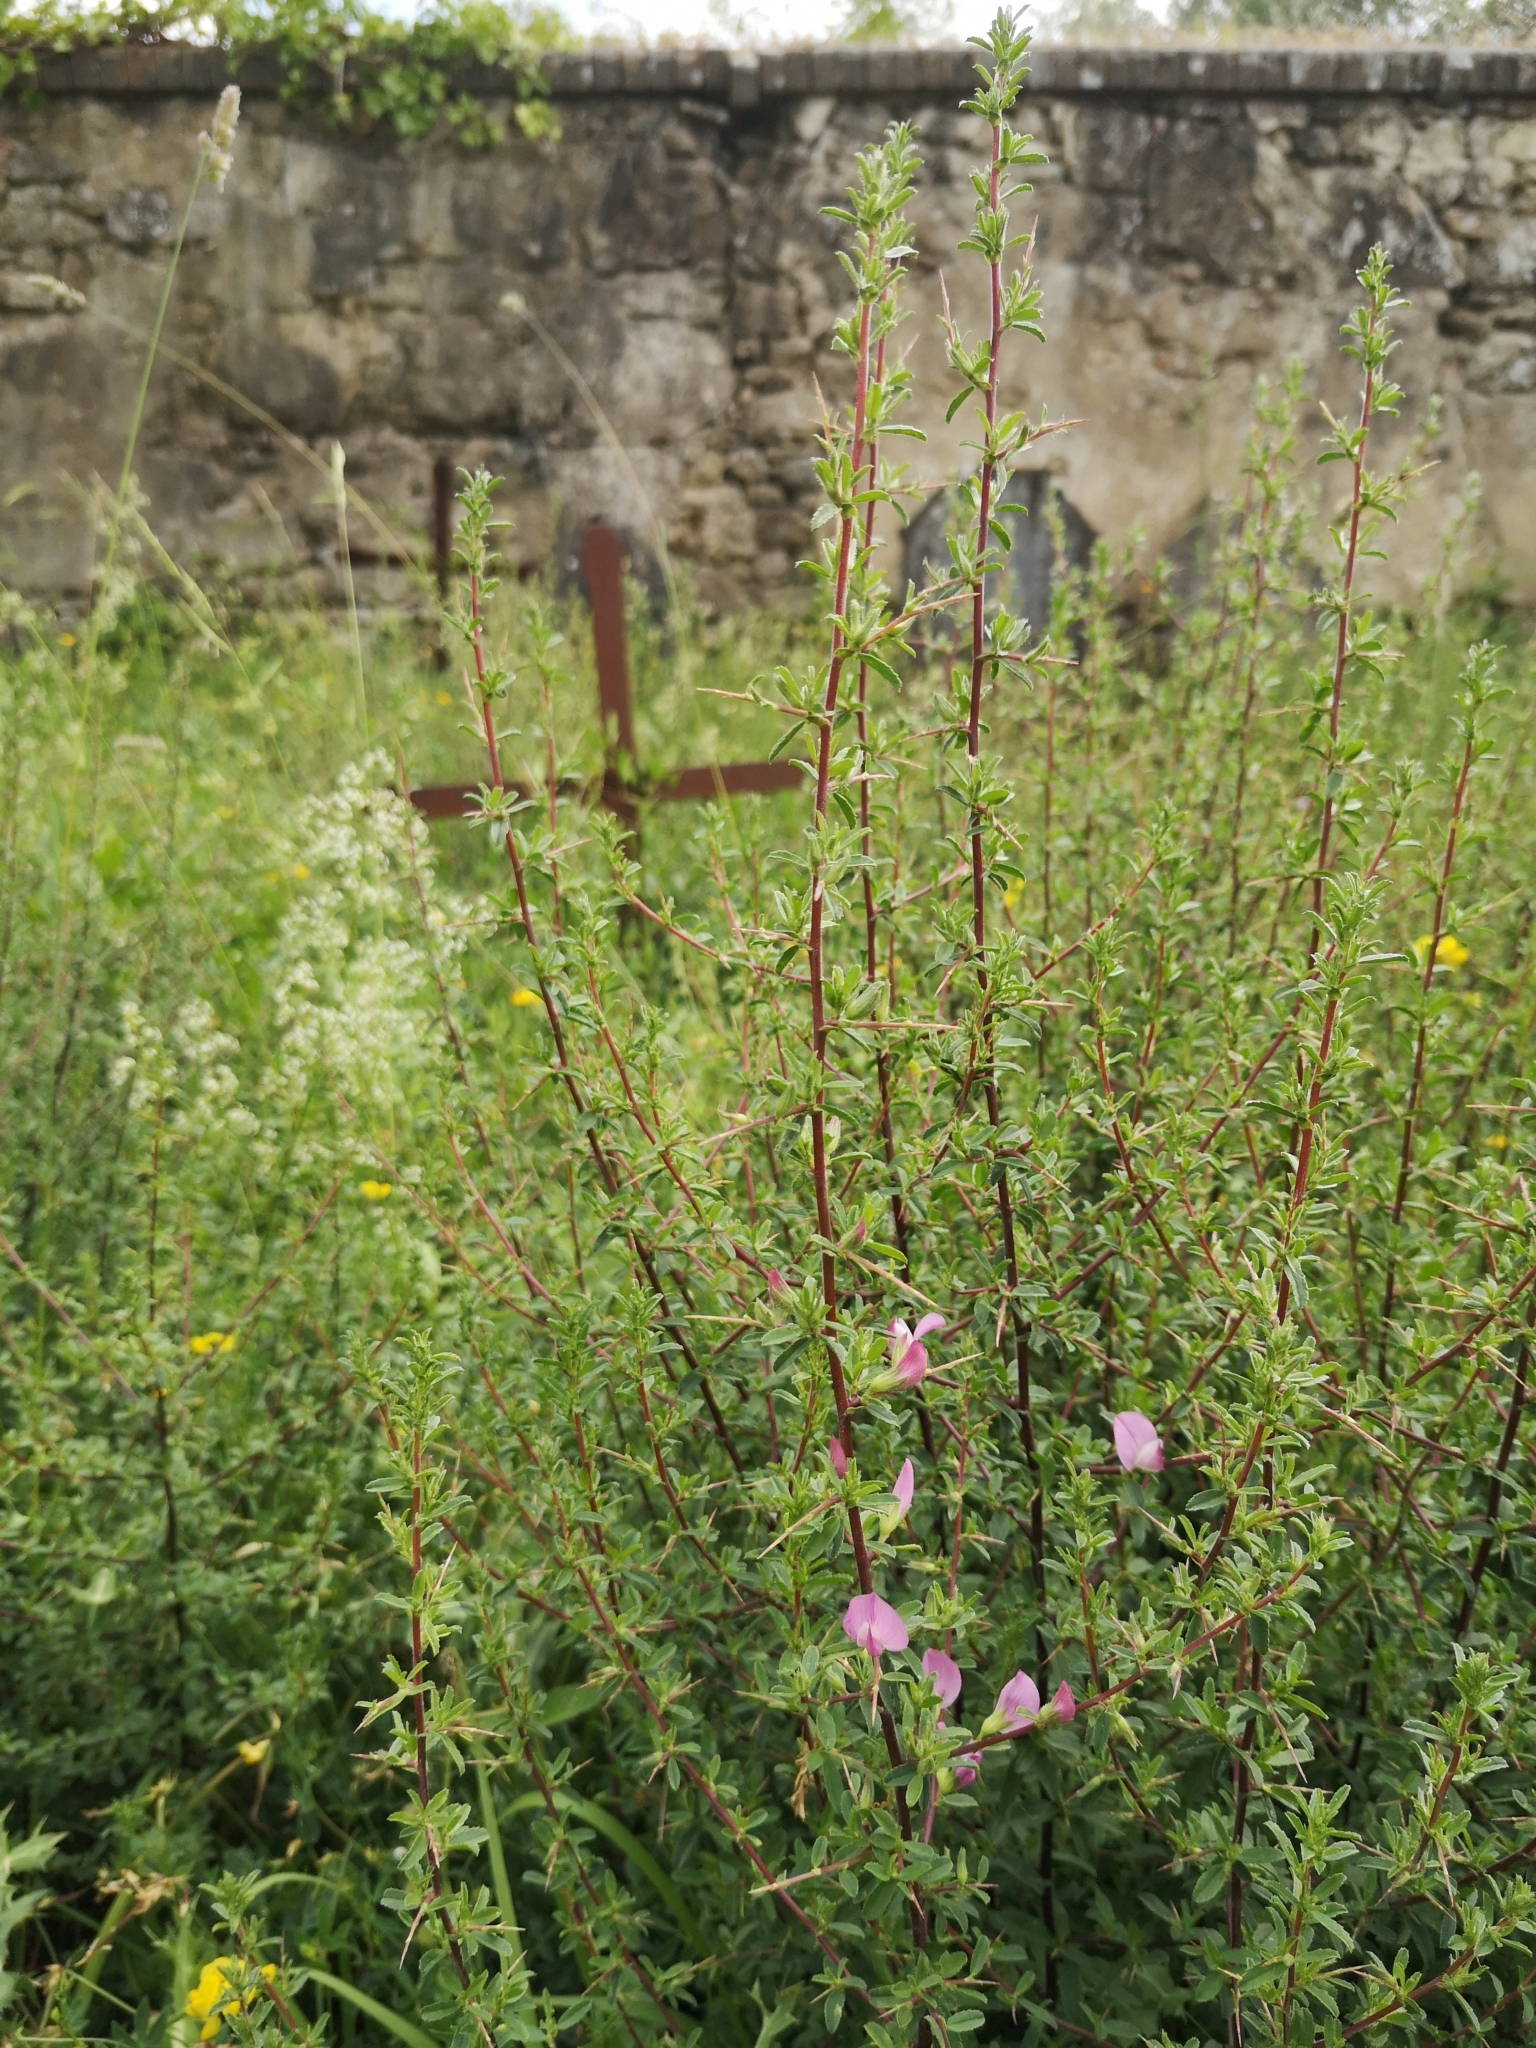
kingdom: Plantae
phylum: Tracheophyta
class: Magnoliopsida
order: Fabales
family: Fabaceae
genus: Ononis
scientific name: Ononis spinosa
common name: Spiny restharrow
